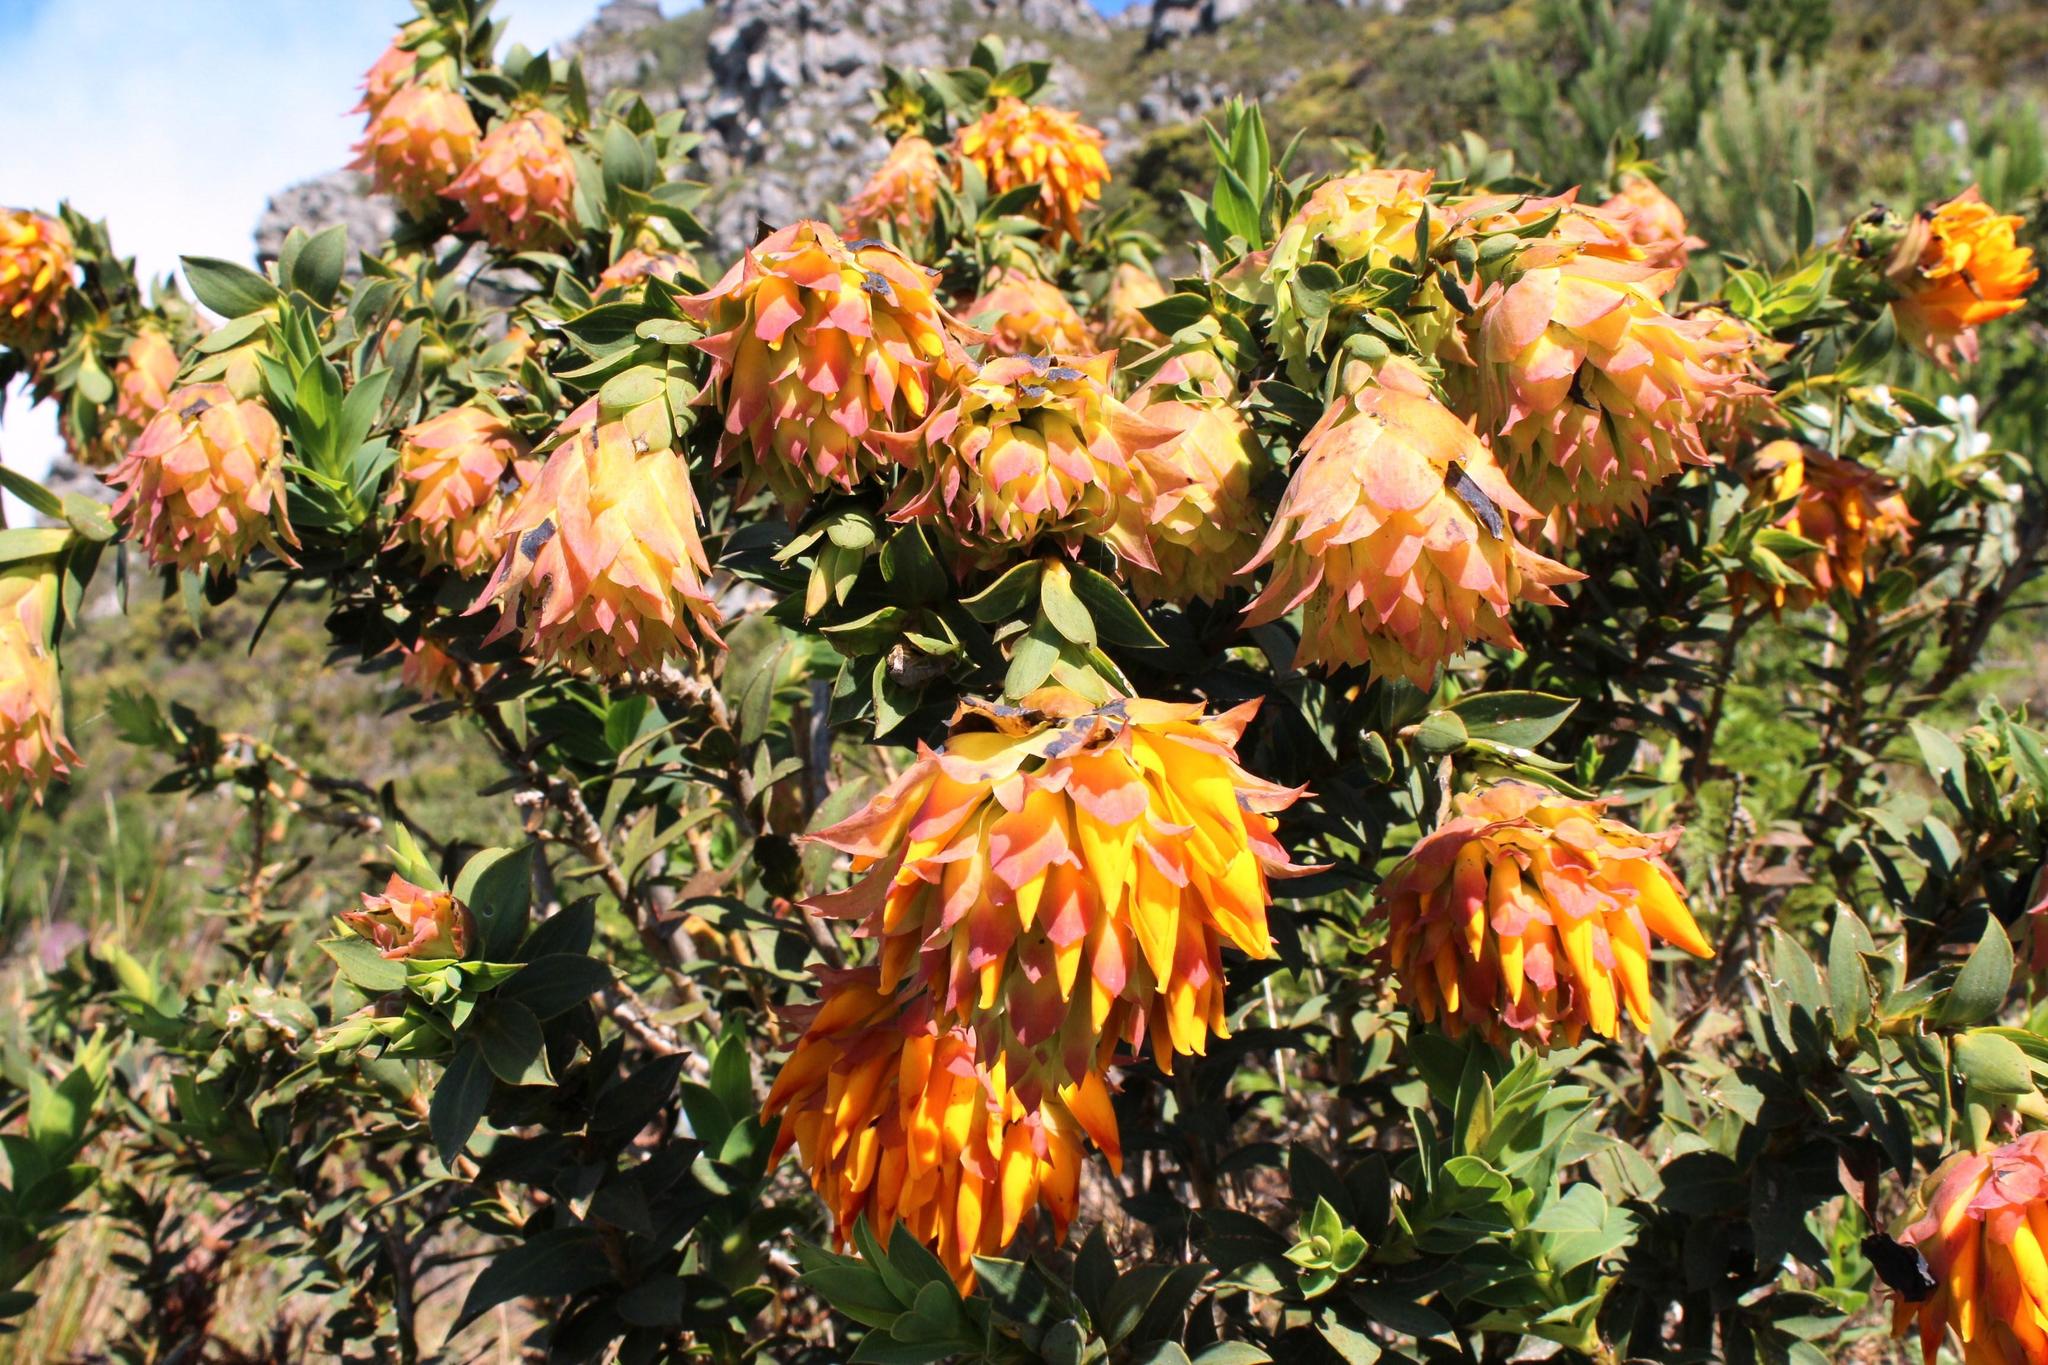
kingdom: Plantae
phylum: Tracheophyta
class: Magnoliopsida
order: Fabales
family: Fabaceae
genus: Liparia
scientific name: Liparia splendens
